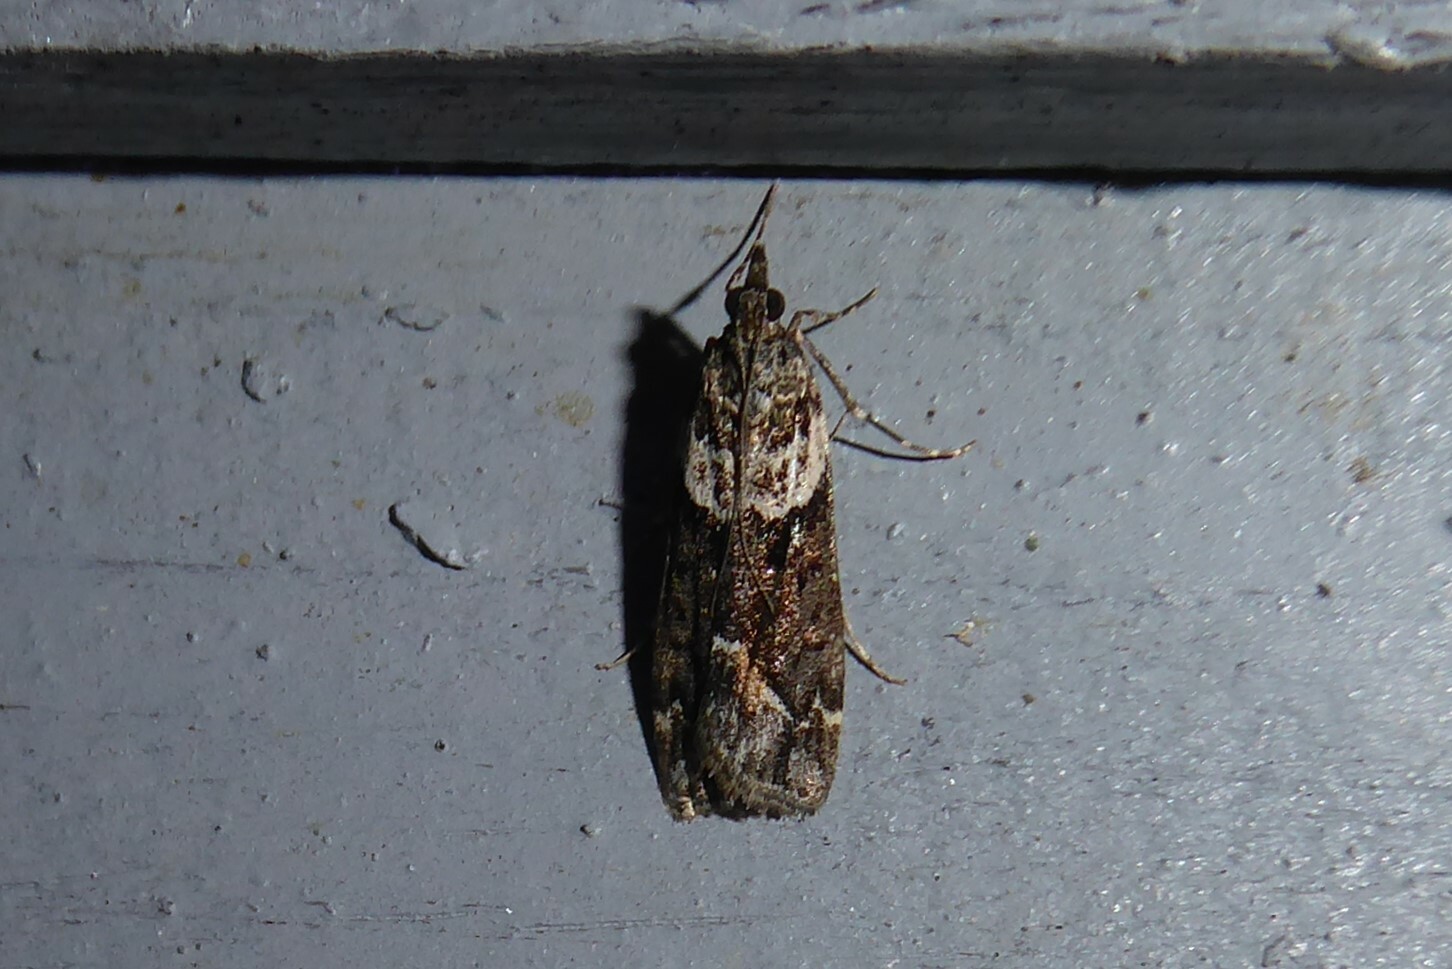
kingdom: Animalia
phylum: Arthropoda
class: Insecta
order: Lepidoptera
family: Crambidae
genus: Eudonia
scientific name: Eudonia submarginalis
